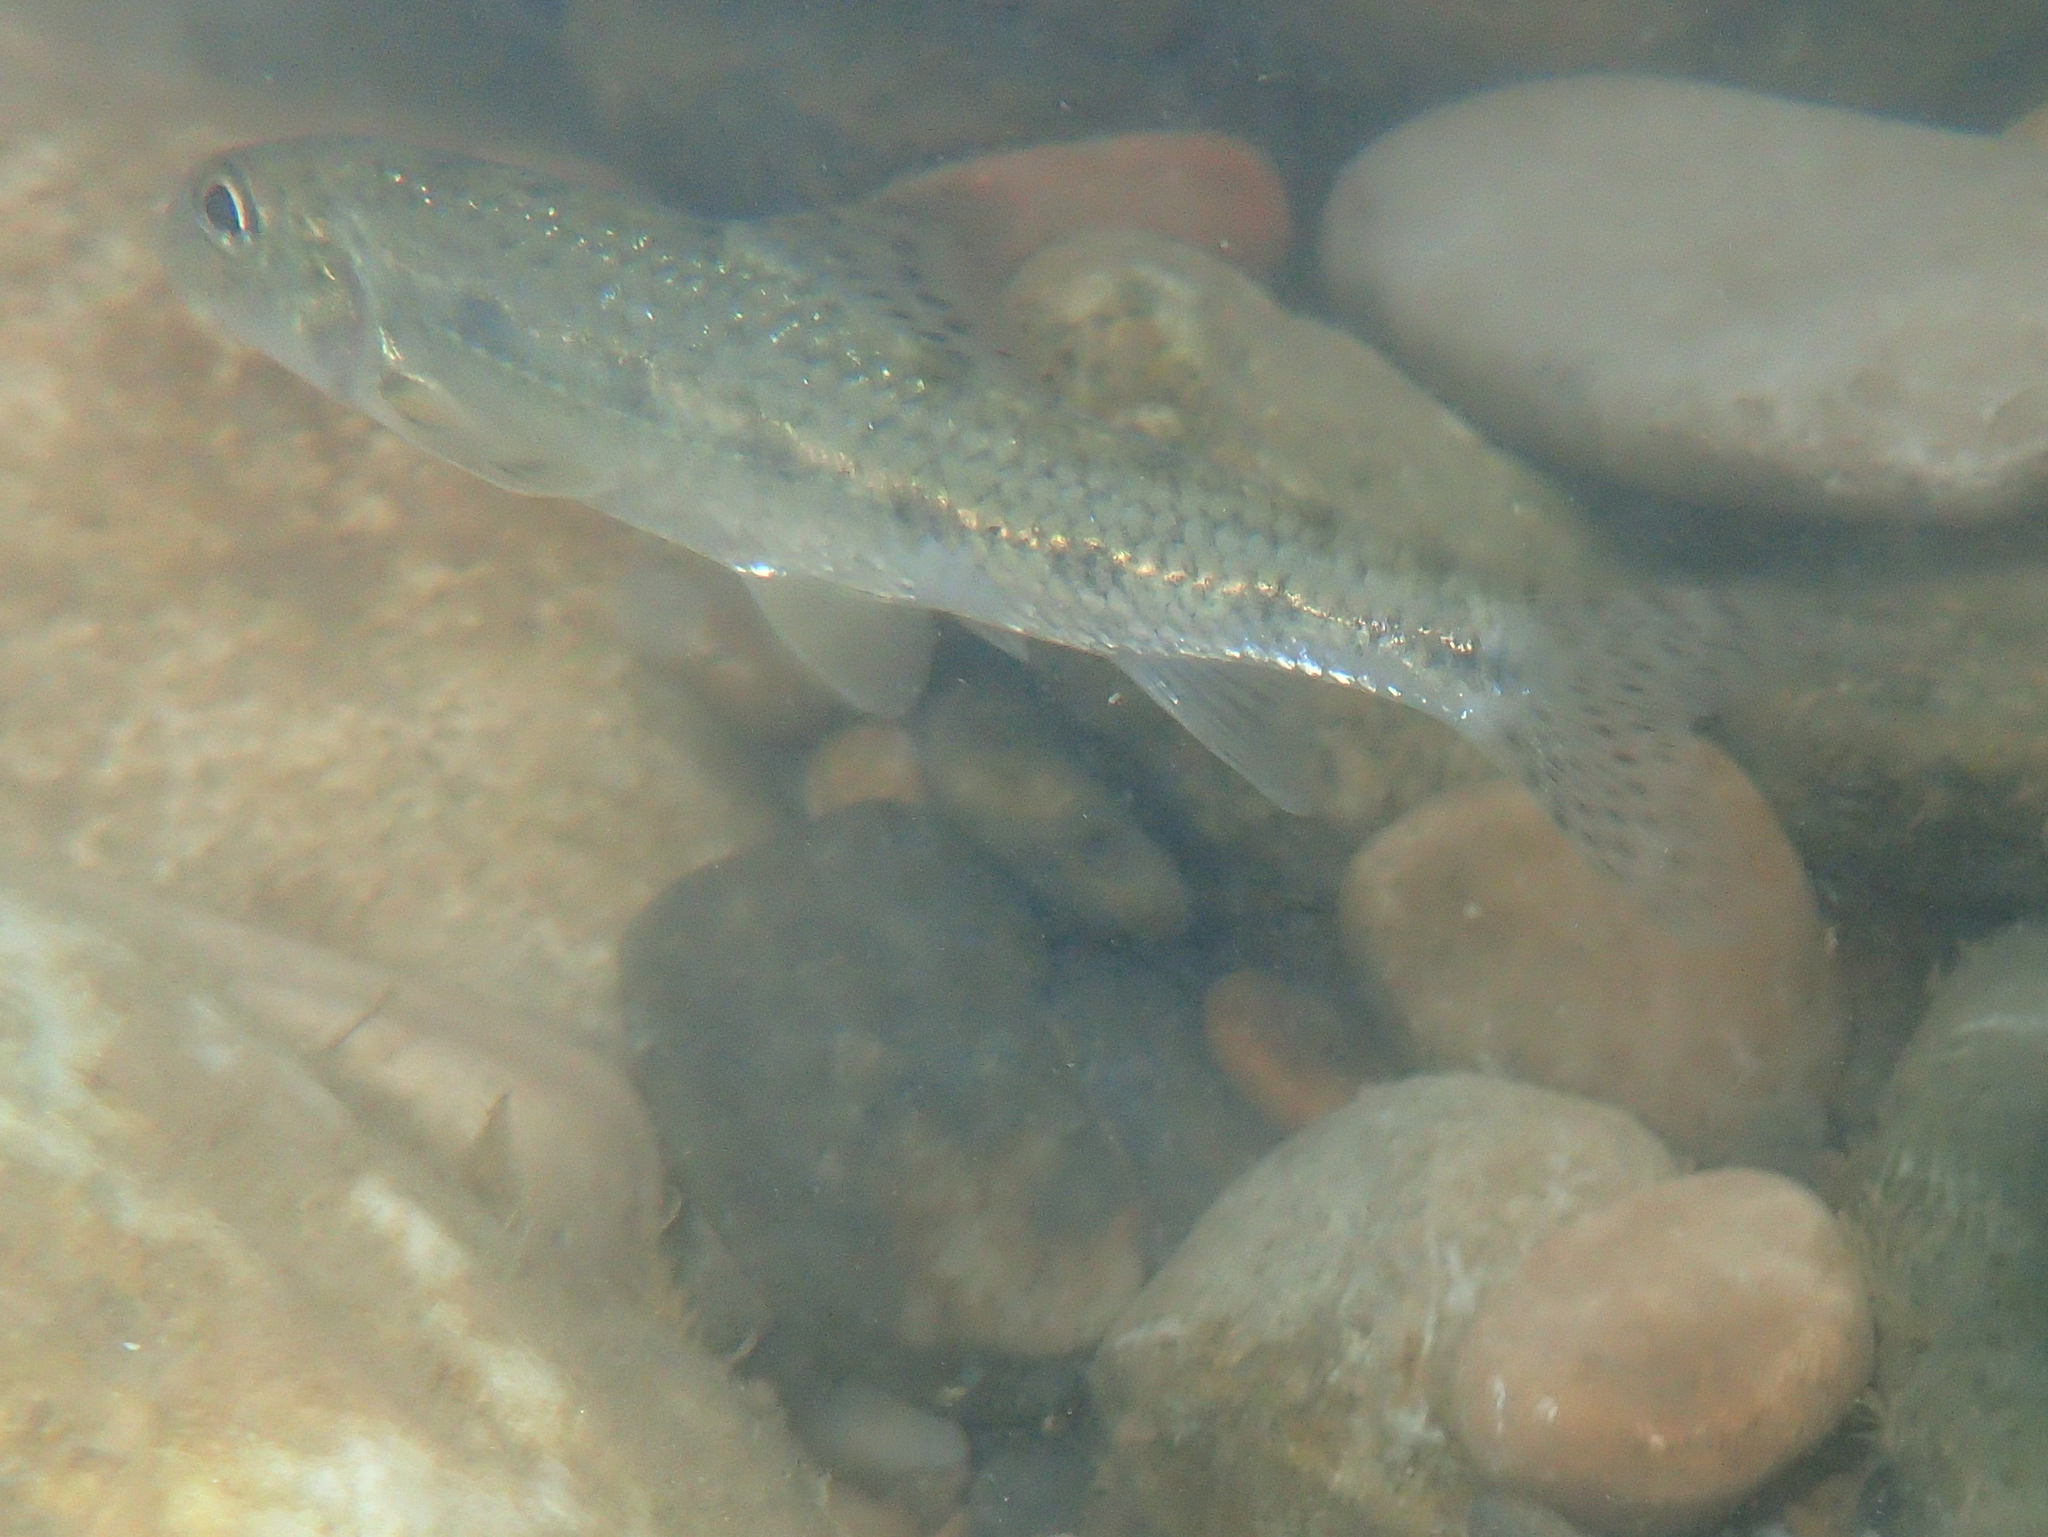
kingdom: Animalia
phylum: Chordata
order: Cypriniformes
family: Cyprinidae
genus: Gobio
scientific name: Gobio occitaniae
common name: Languedoc gudgeon
